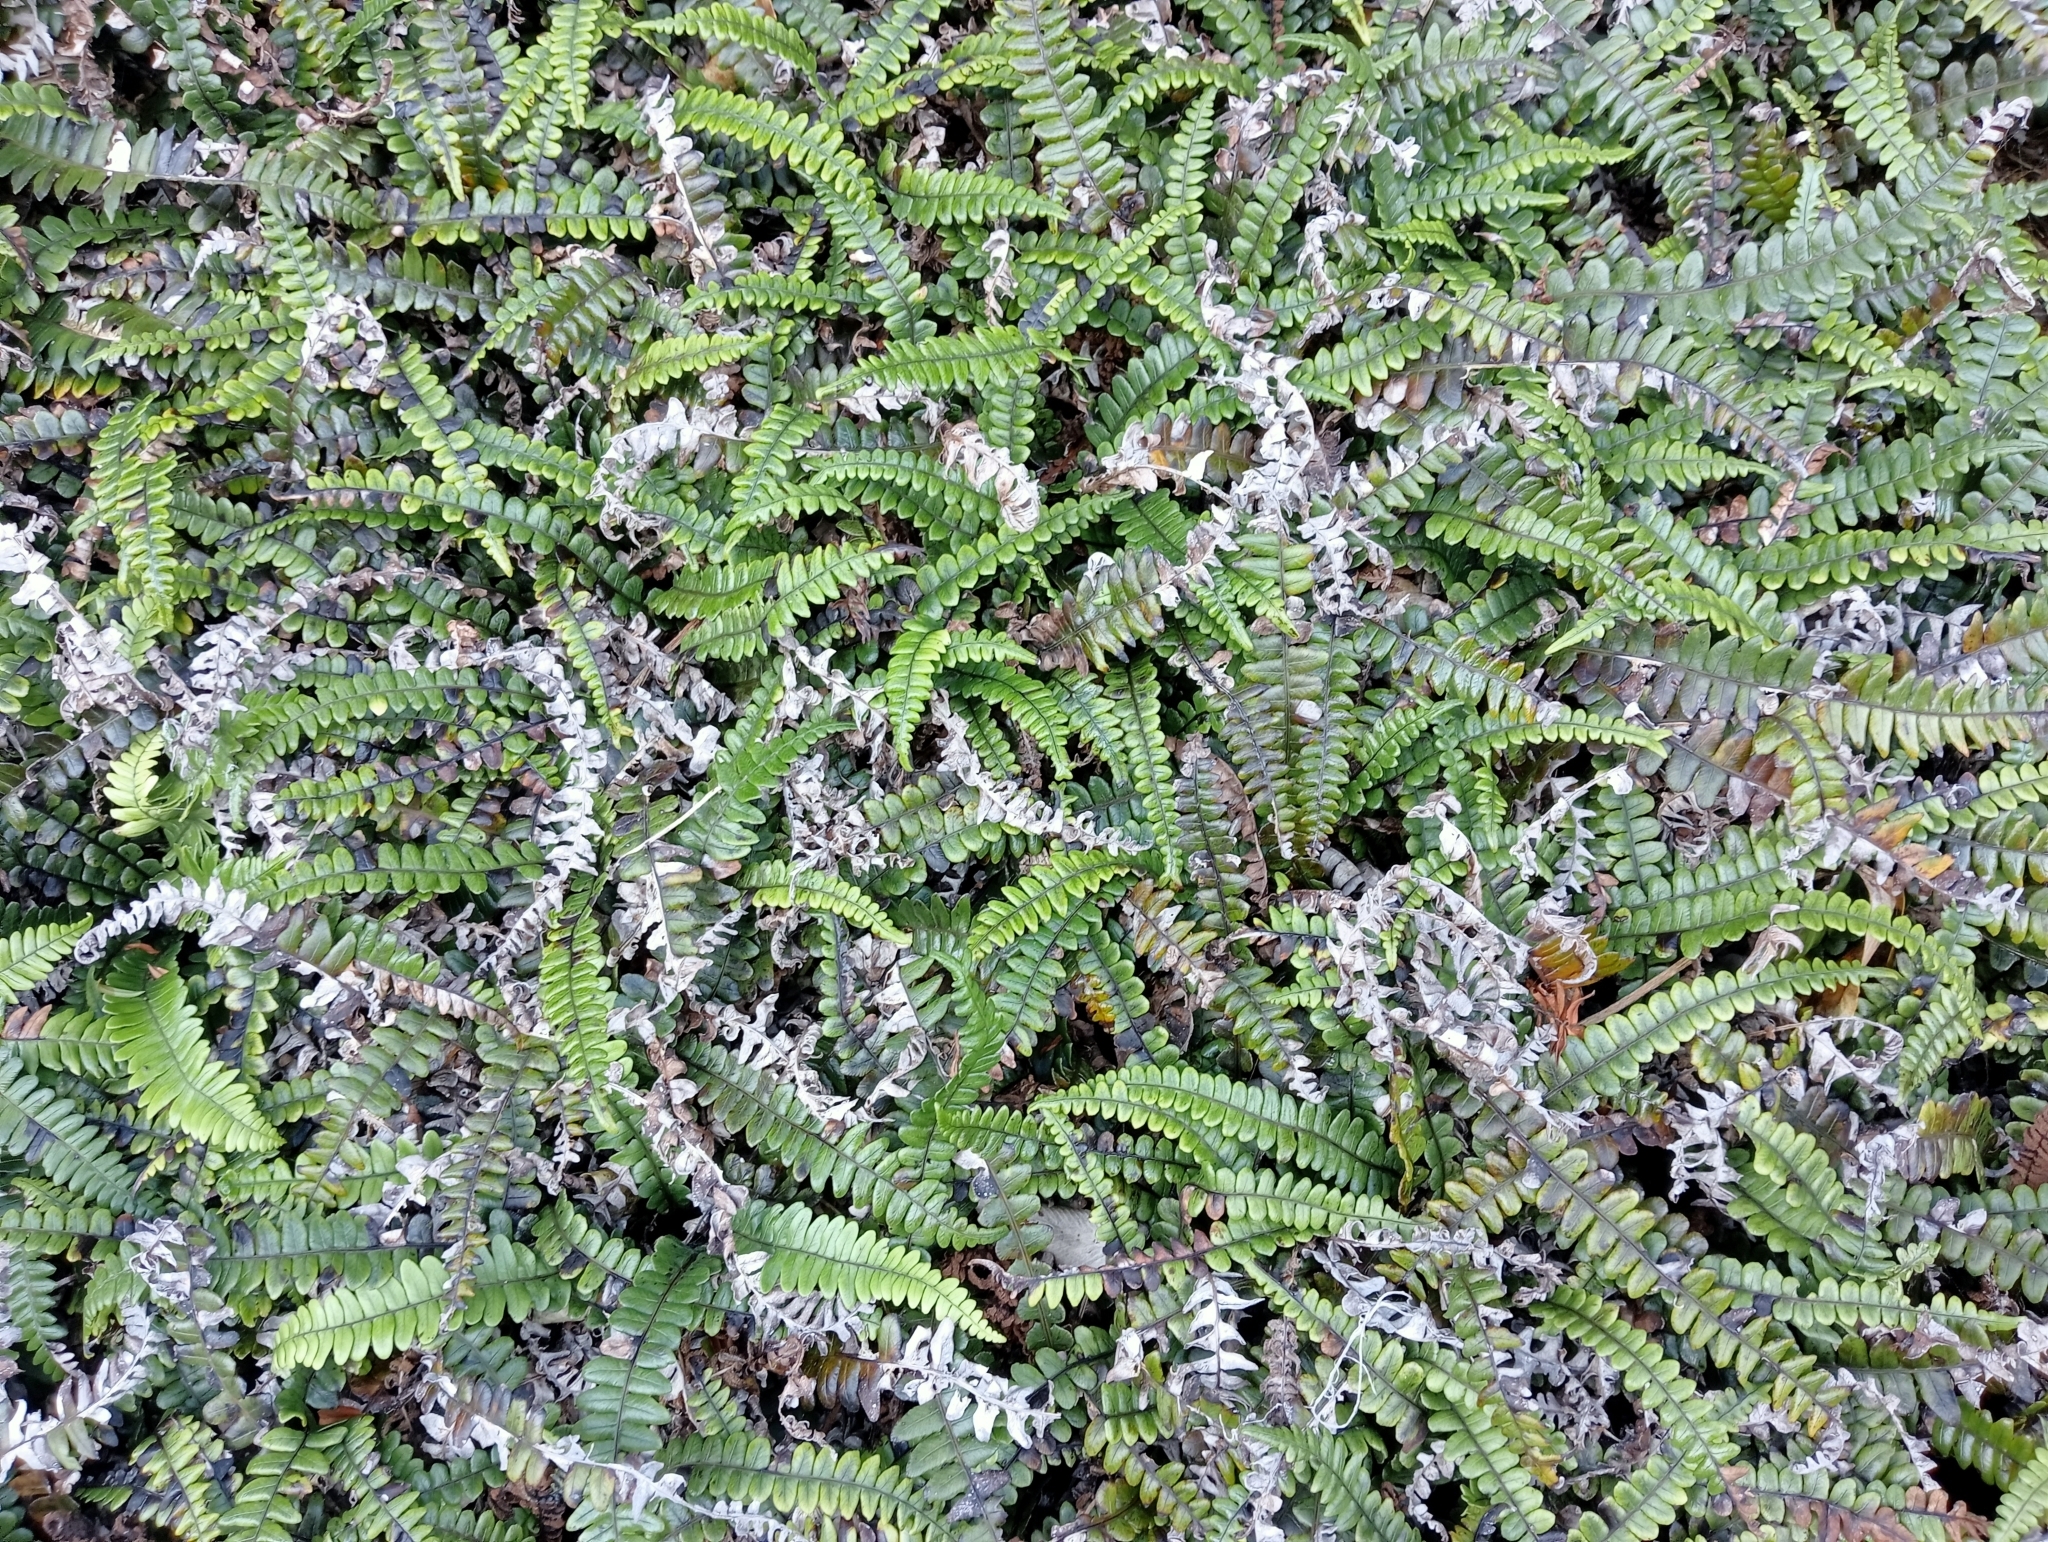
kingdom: Plantae
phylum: Tracheophyta
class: Polypodiopsida
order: Polypodiales
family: Blechnaceae
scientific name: Blechnaceae
